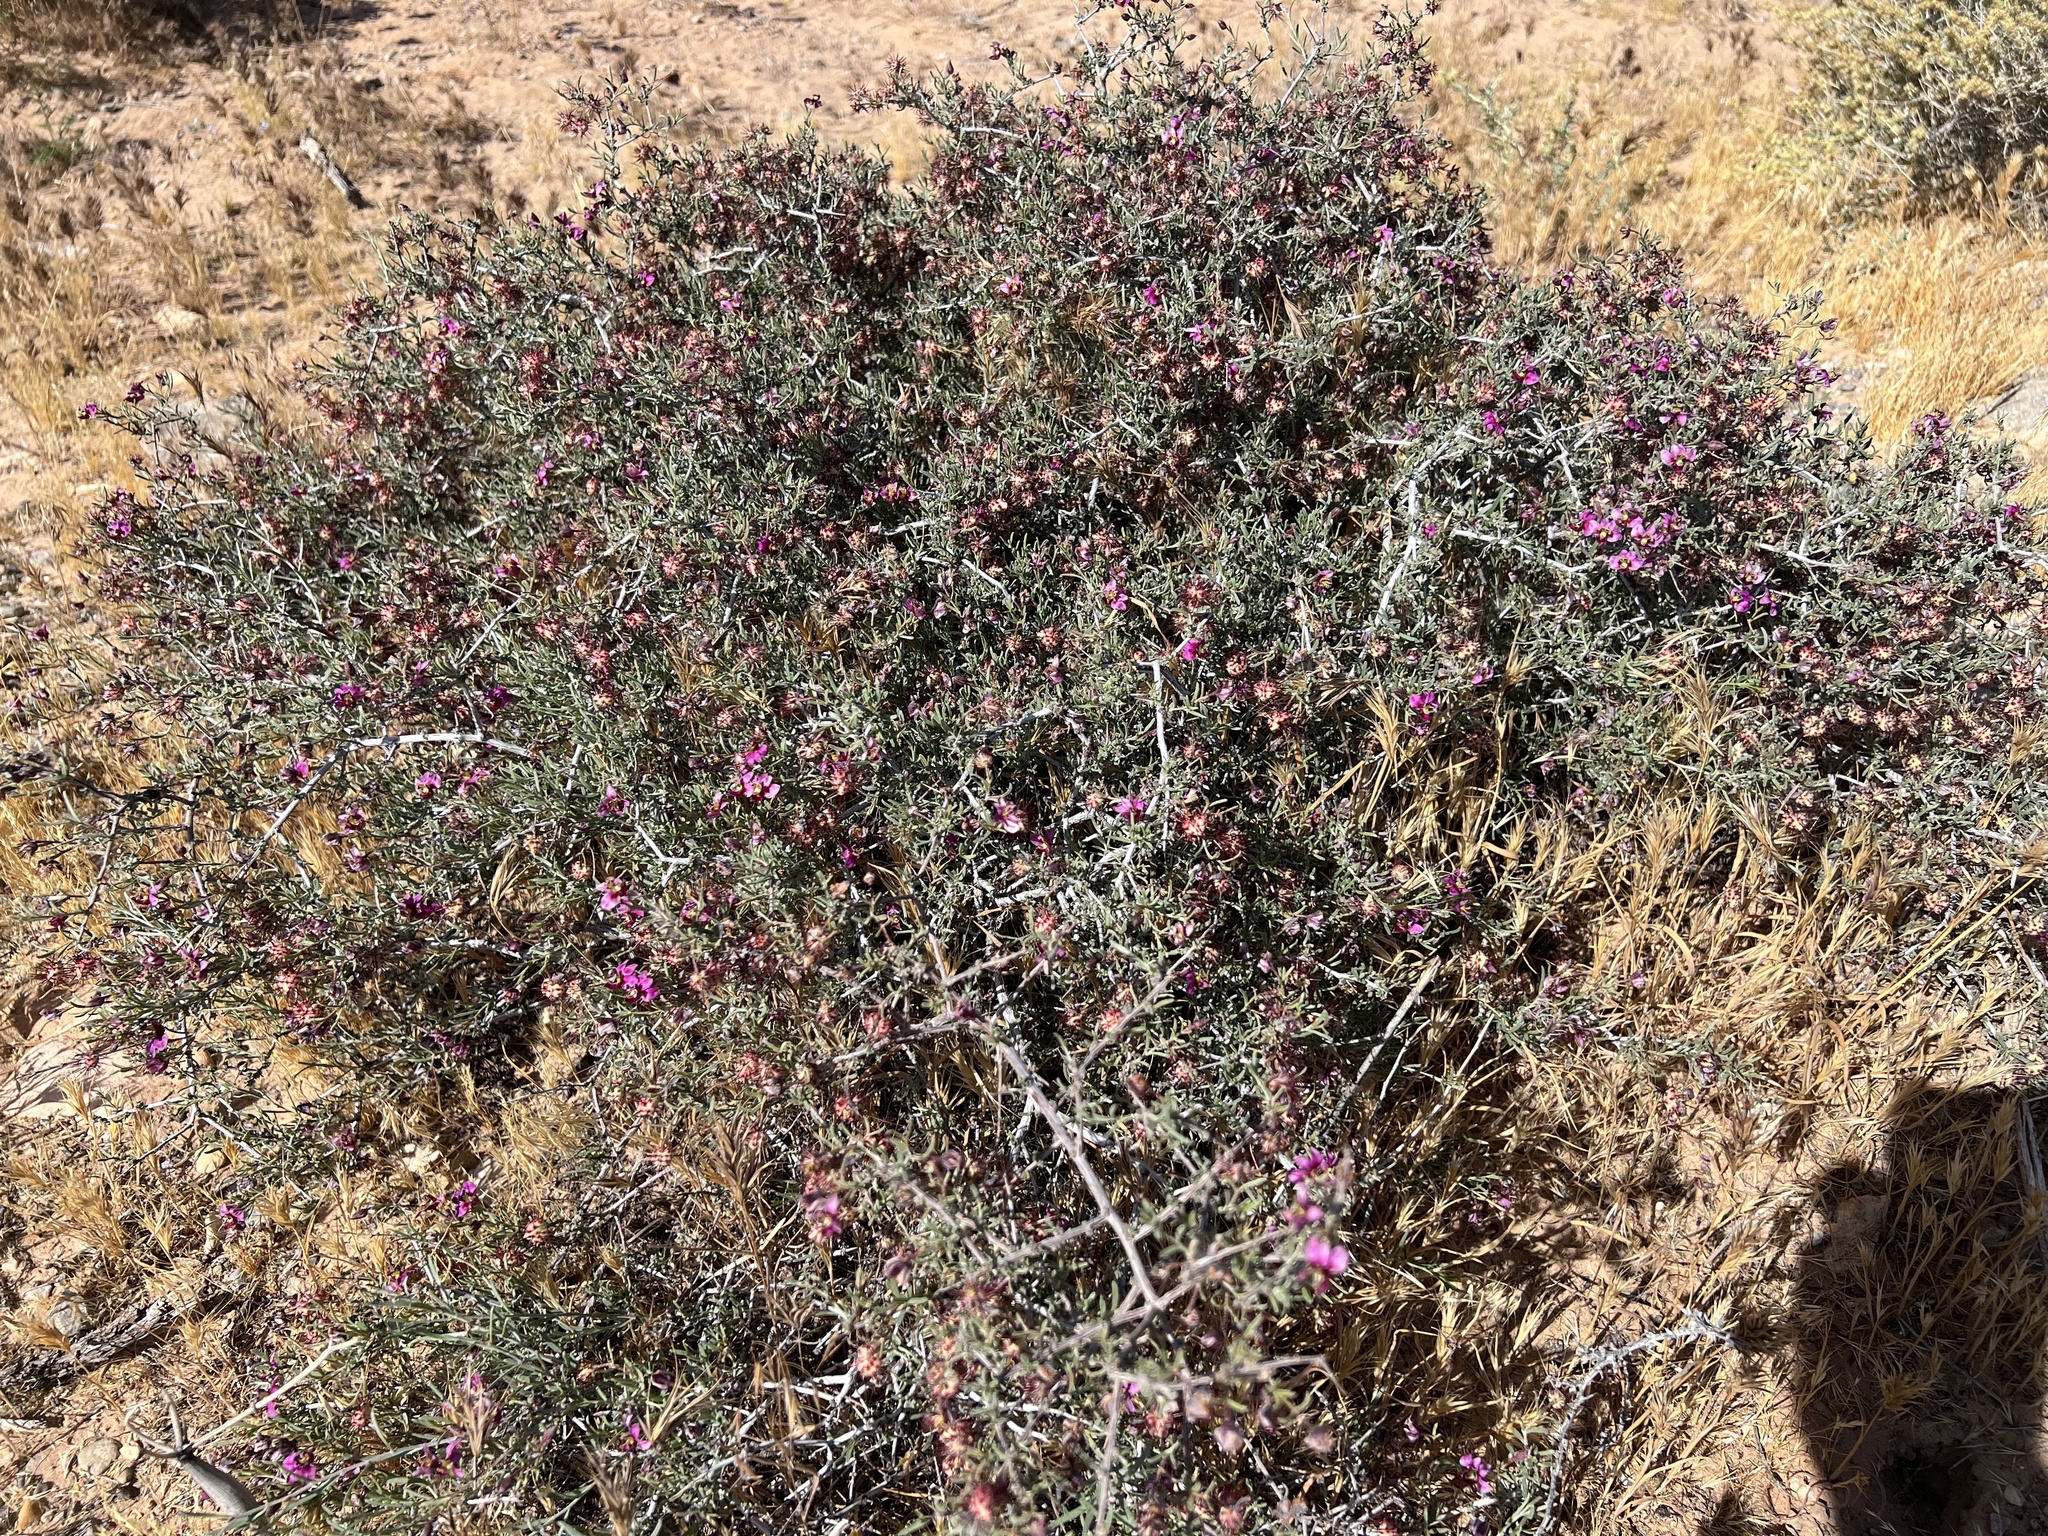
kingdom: Plantae
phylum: Tracheophyta
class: Magnoliopsida
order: Zygophyllales
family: Krameriaceae
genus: Krameria
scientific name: Krameria erecta
